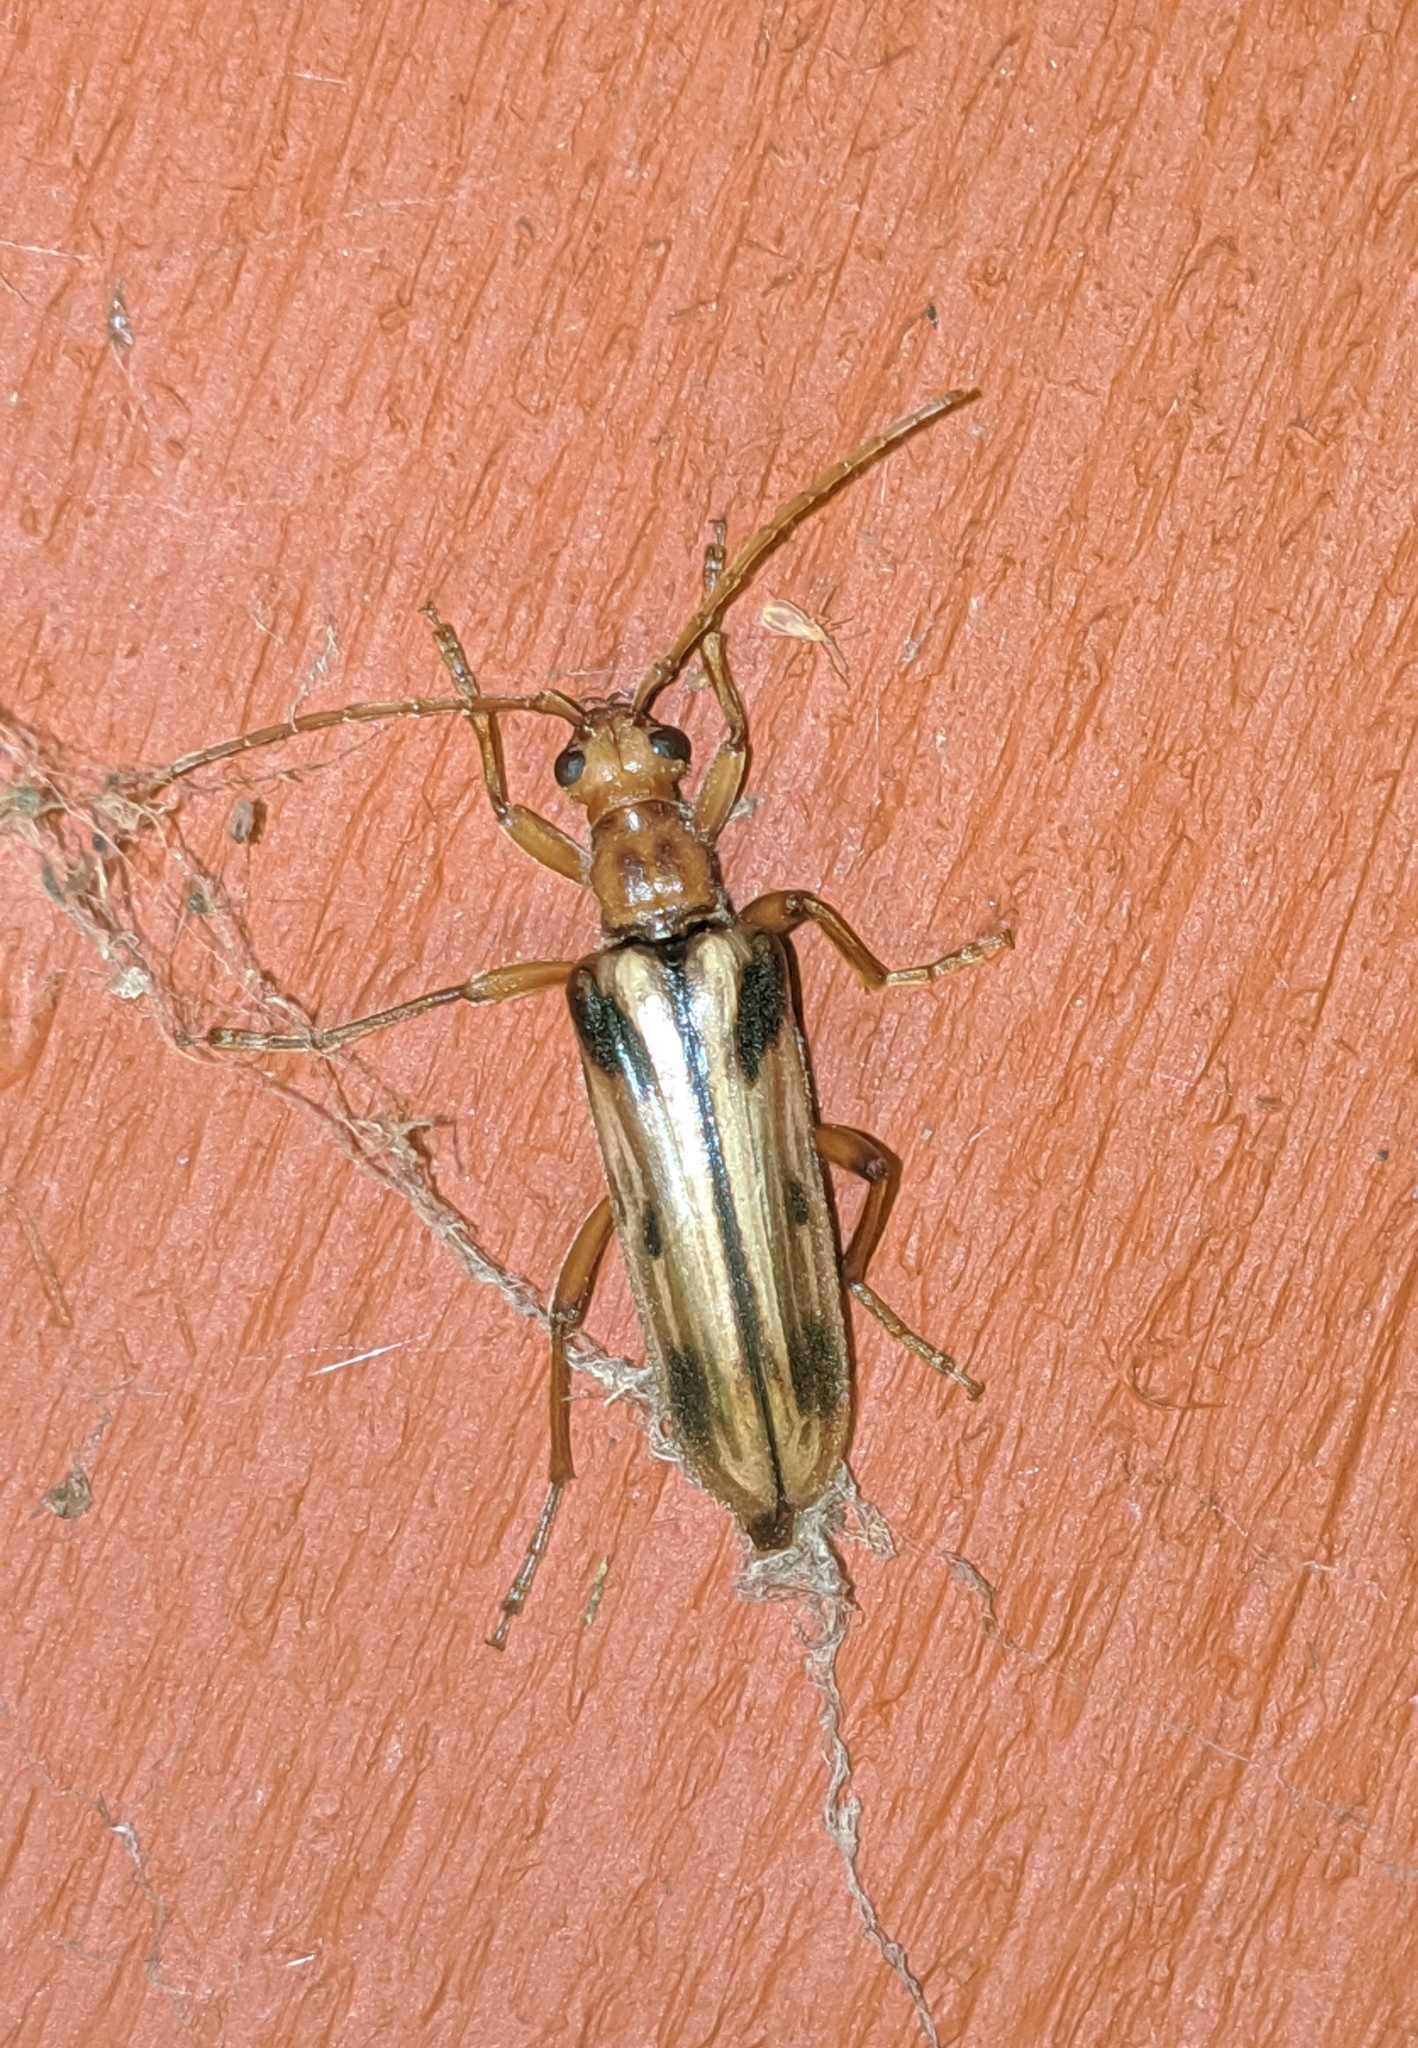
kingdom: Animalia
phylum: Arthropoda
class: Insecta
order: Coleoptera
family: Cerambycidae
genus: Ortholeptura
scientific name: Ortholeptura valida
